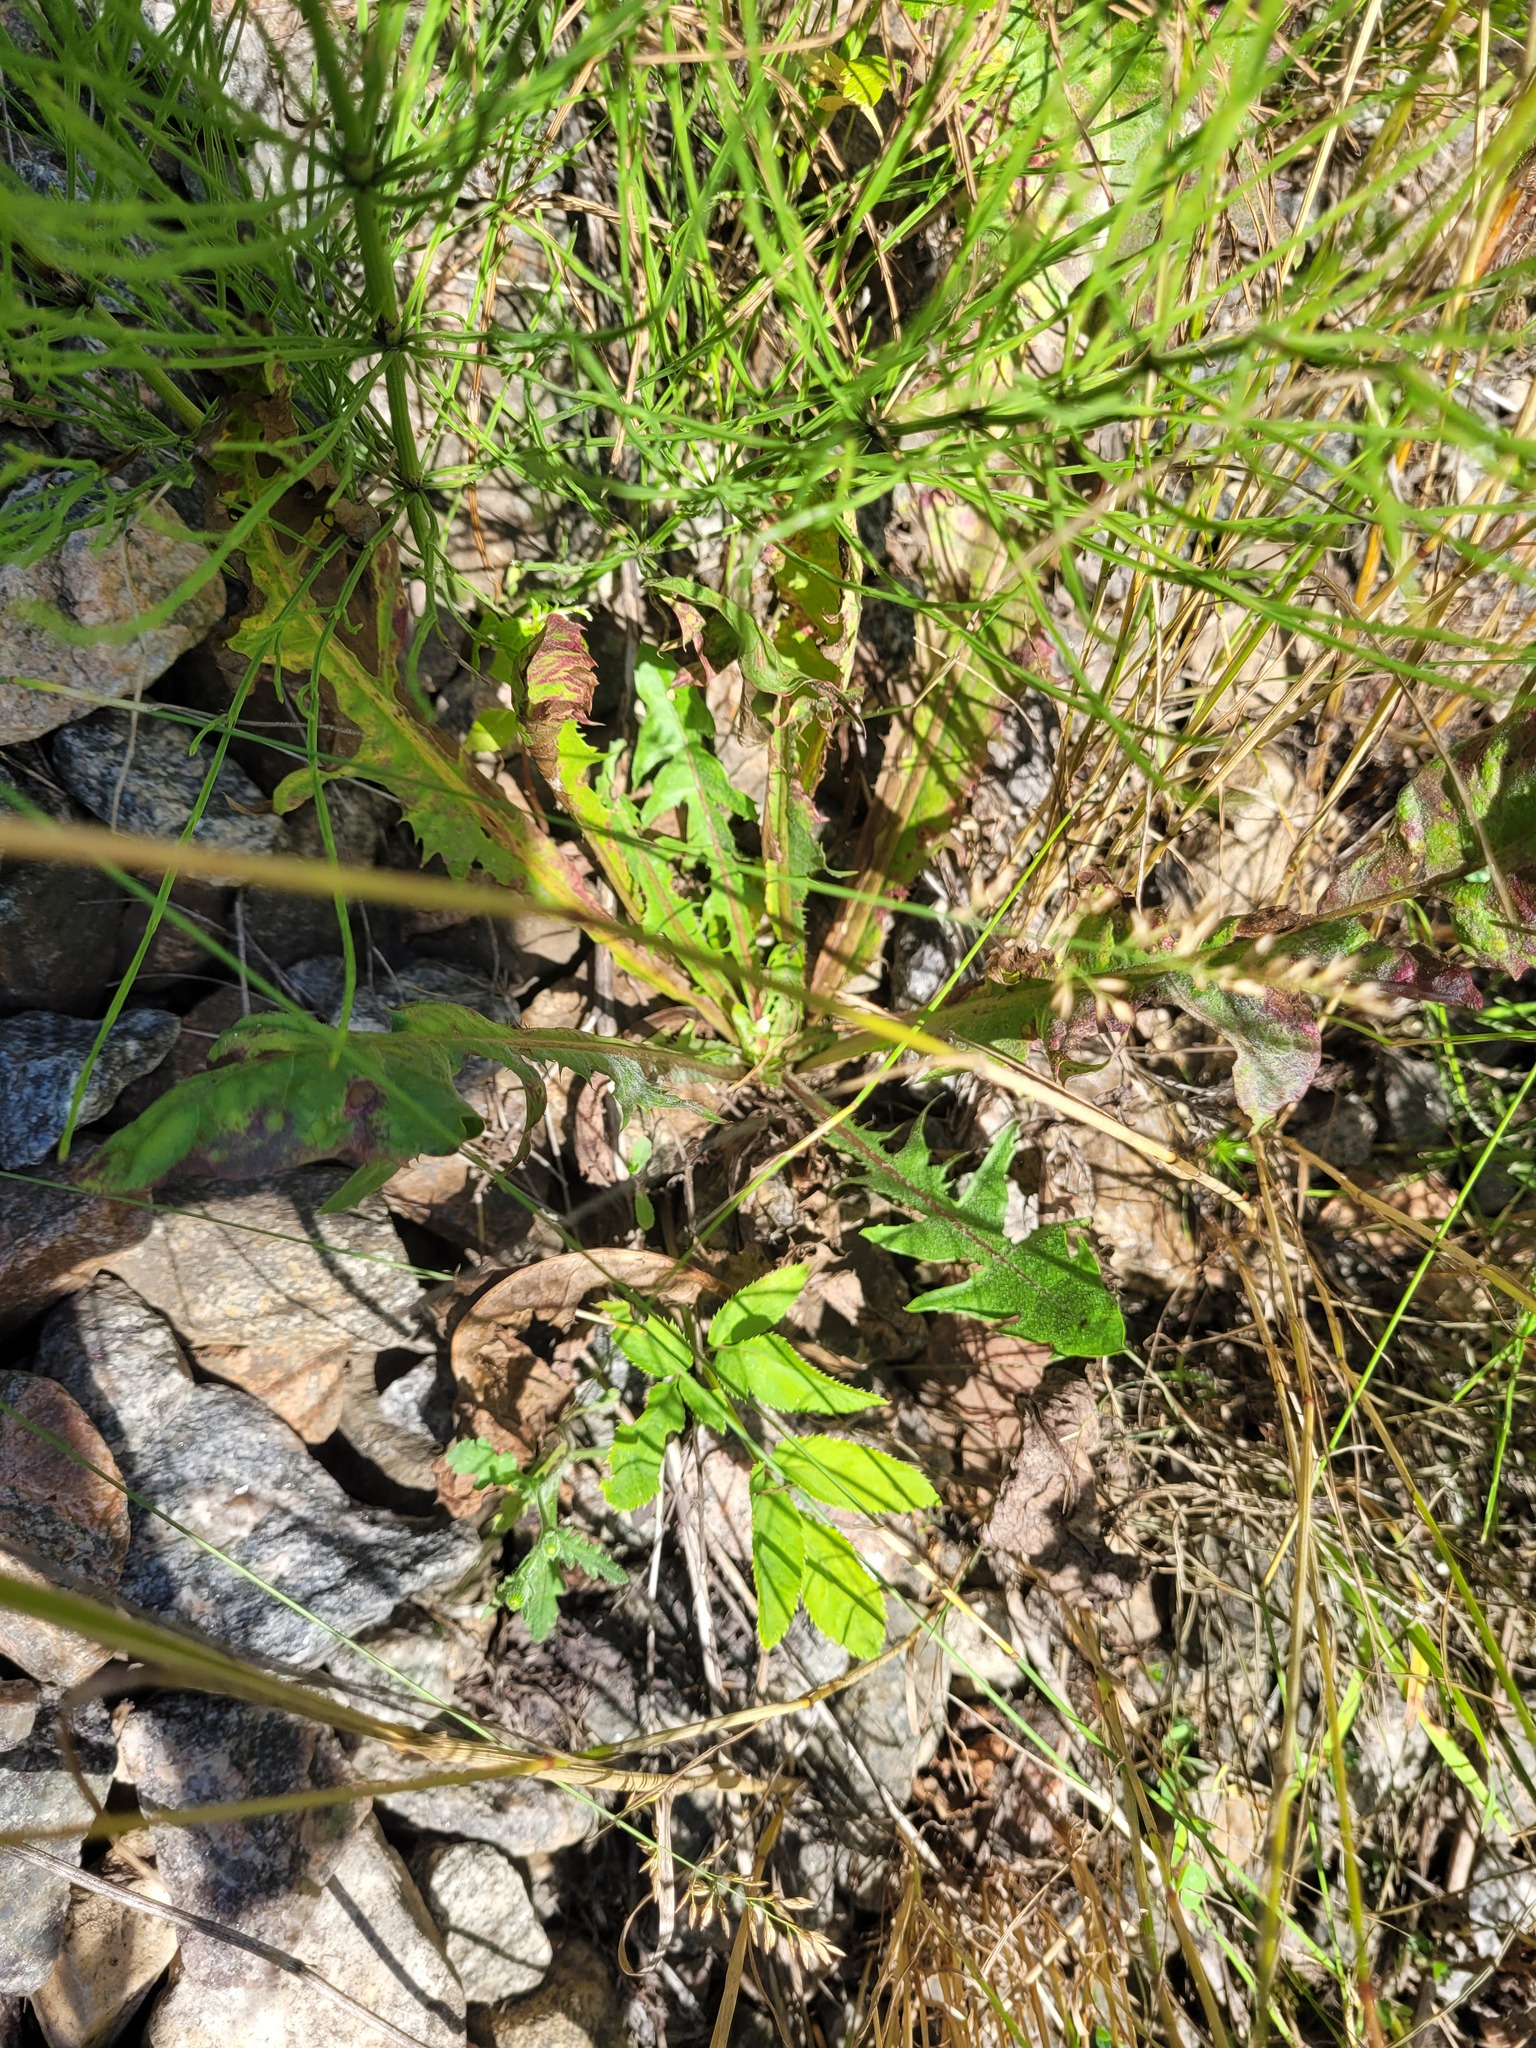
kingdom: Plantae
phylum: Tracheophyta
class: Magnoliopsida
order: Asterales
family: Asteraceae
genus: Taraxacum
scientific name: Taraxacum officinale
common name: Common dandelion
